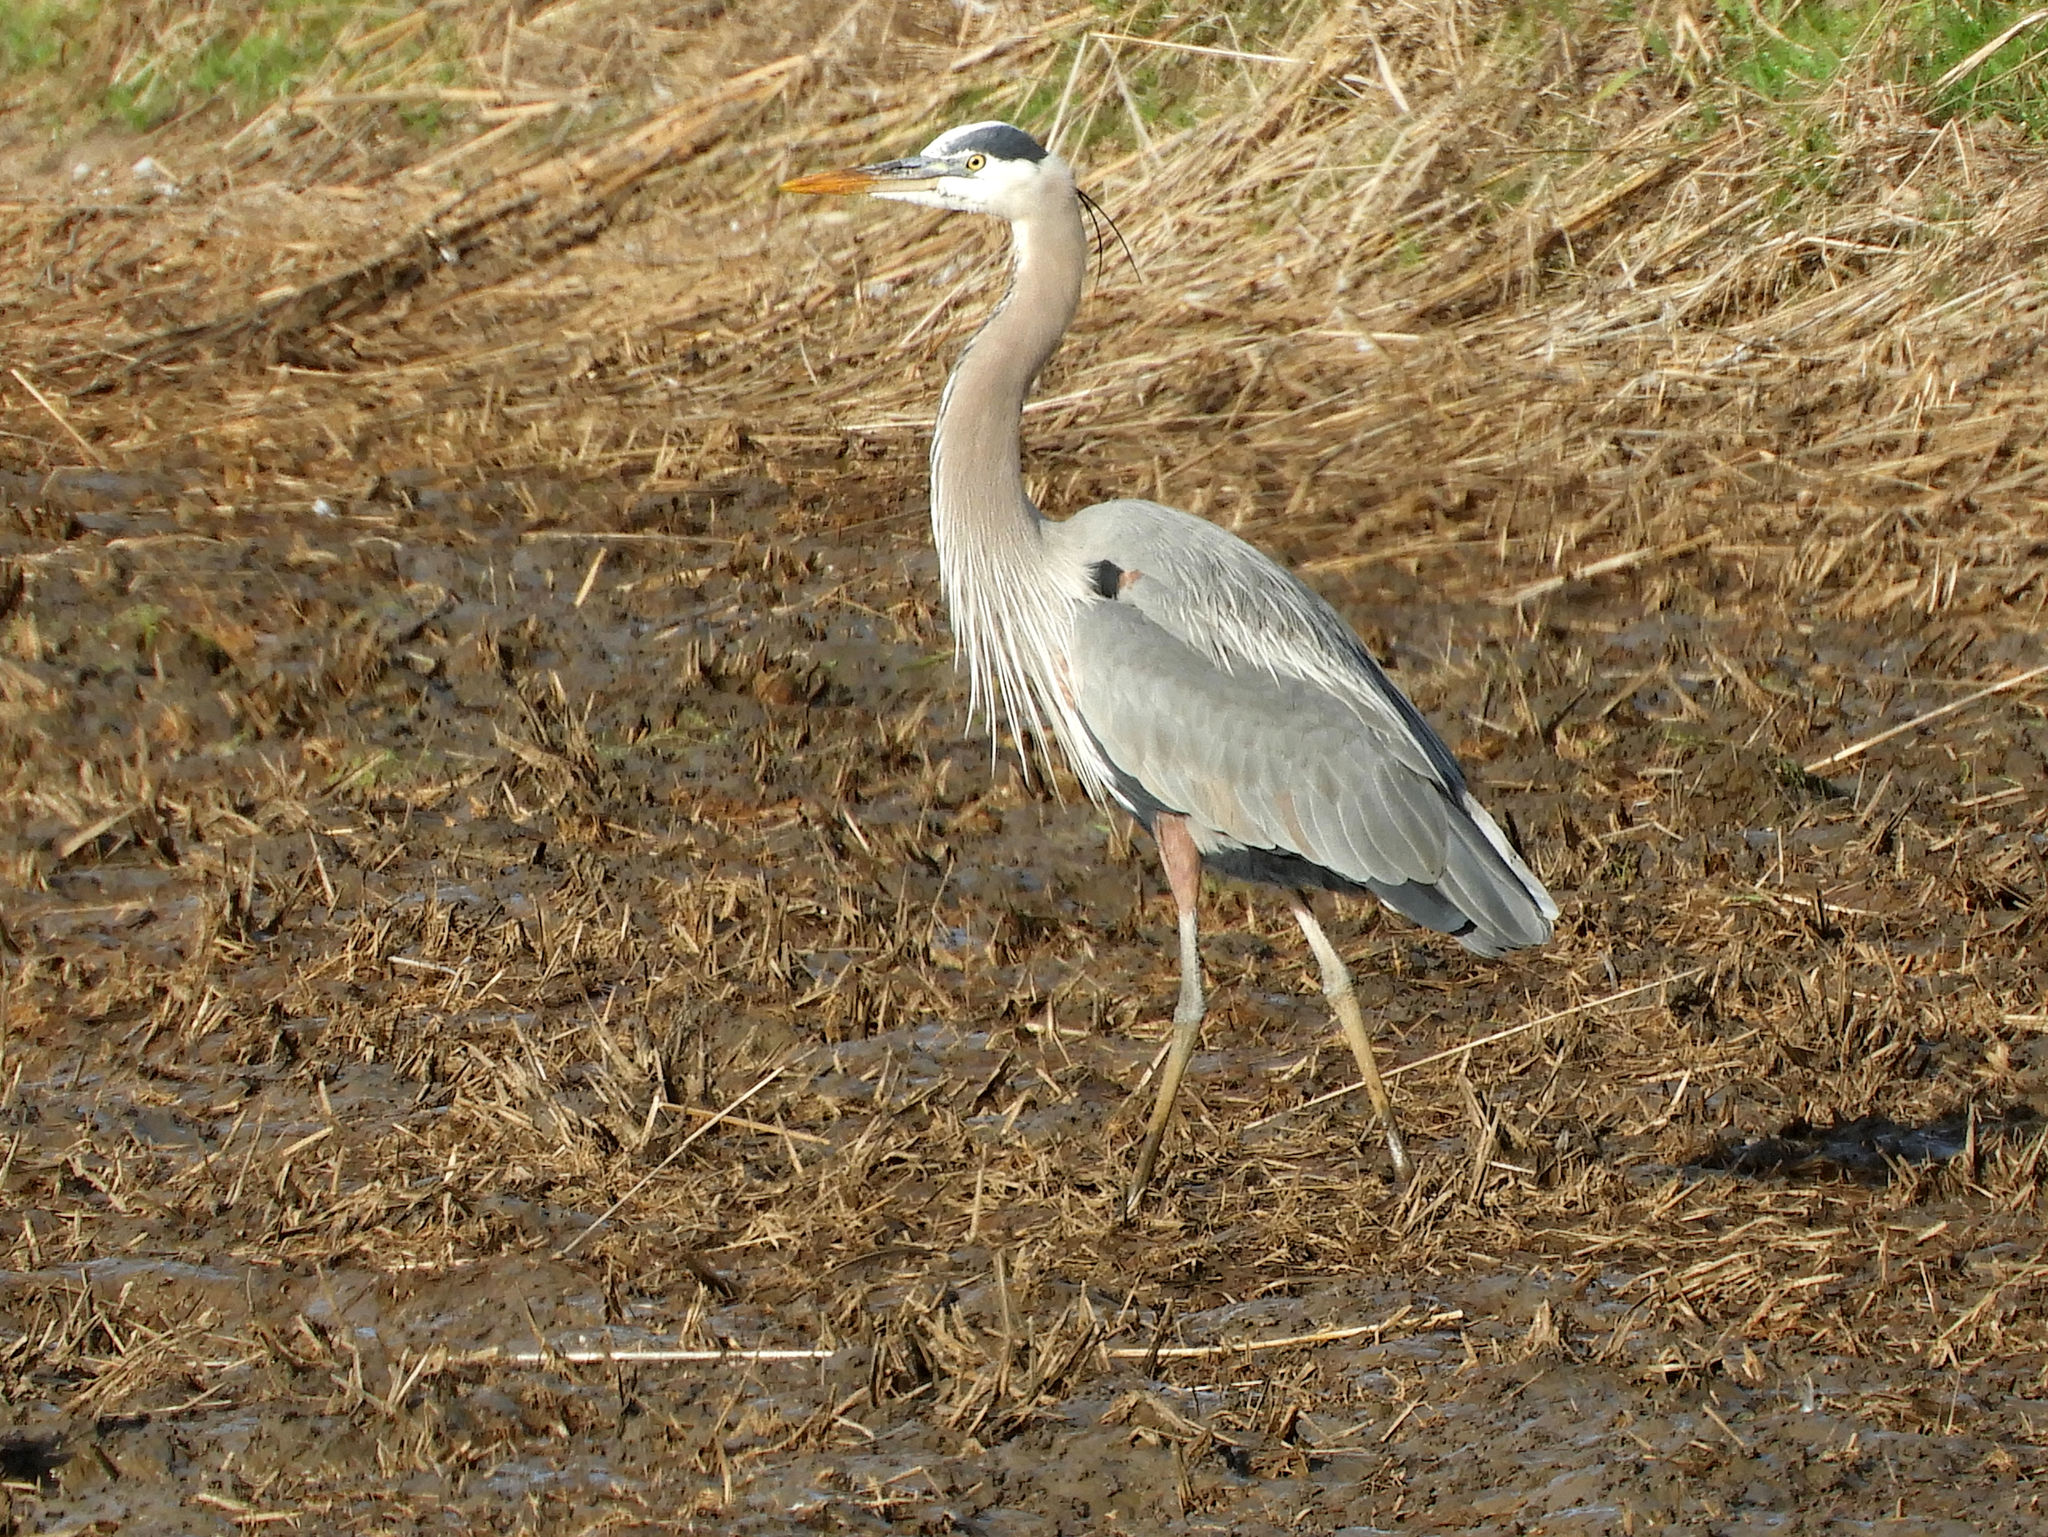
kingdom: Animalia
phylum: Chordata
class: Aves
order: Pelecaniformes
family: Ardeidae
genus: Ardea
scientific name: Ardea herodias
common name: Great blue heron
